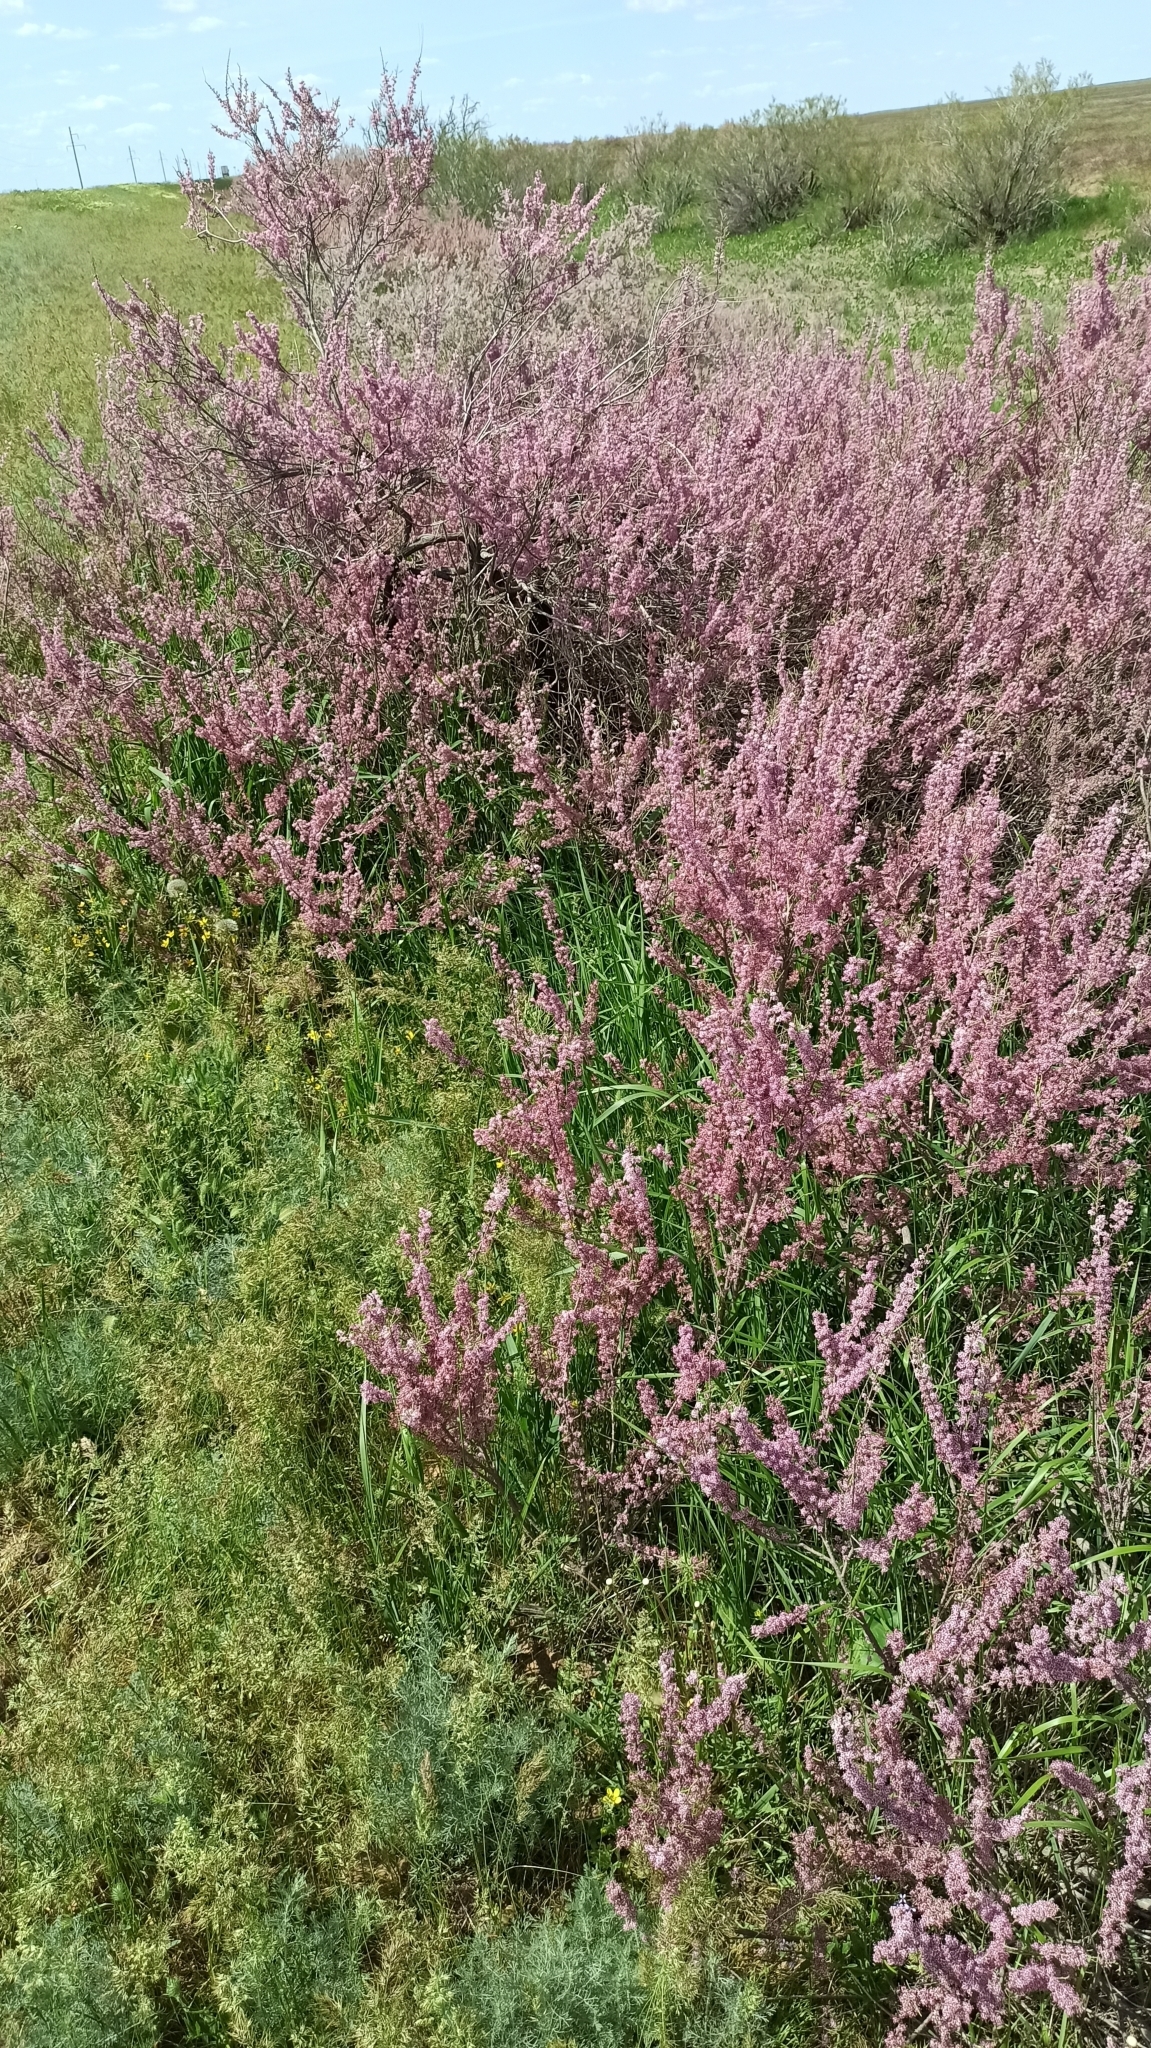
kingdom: Plantae
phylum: Tracheophyta
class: Magnoliopsida
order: Caryophyllales
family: Tamaricaceae
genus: Tamarix
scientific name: Tamarix ramosissima
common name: Pink tamarisk
